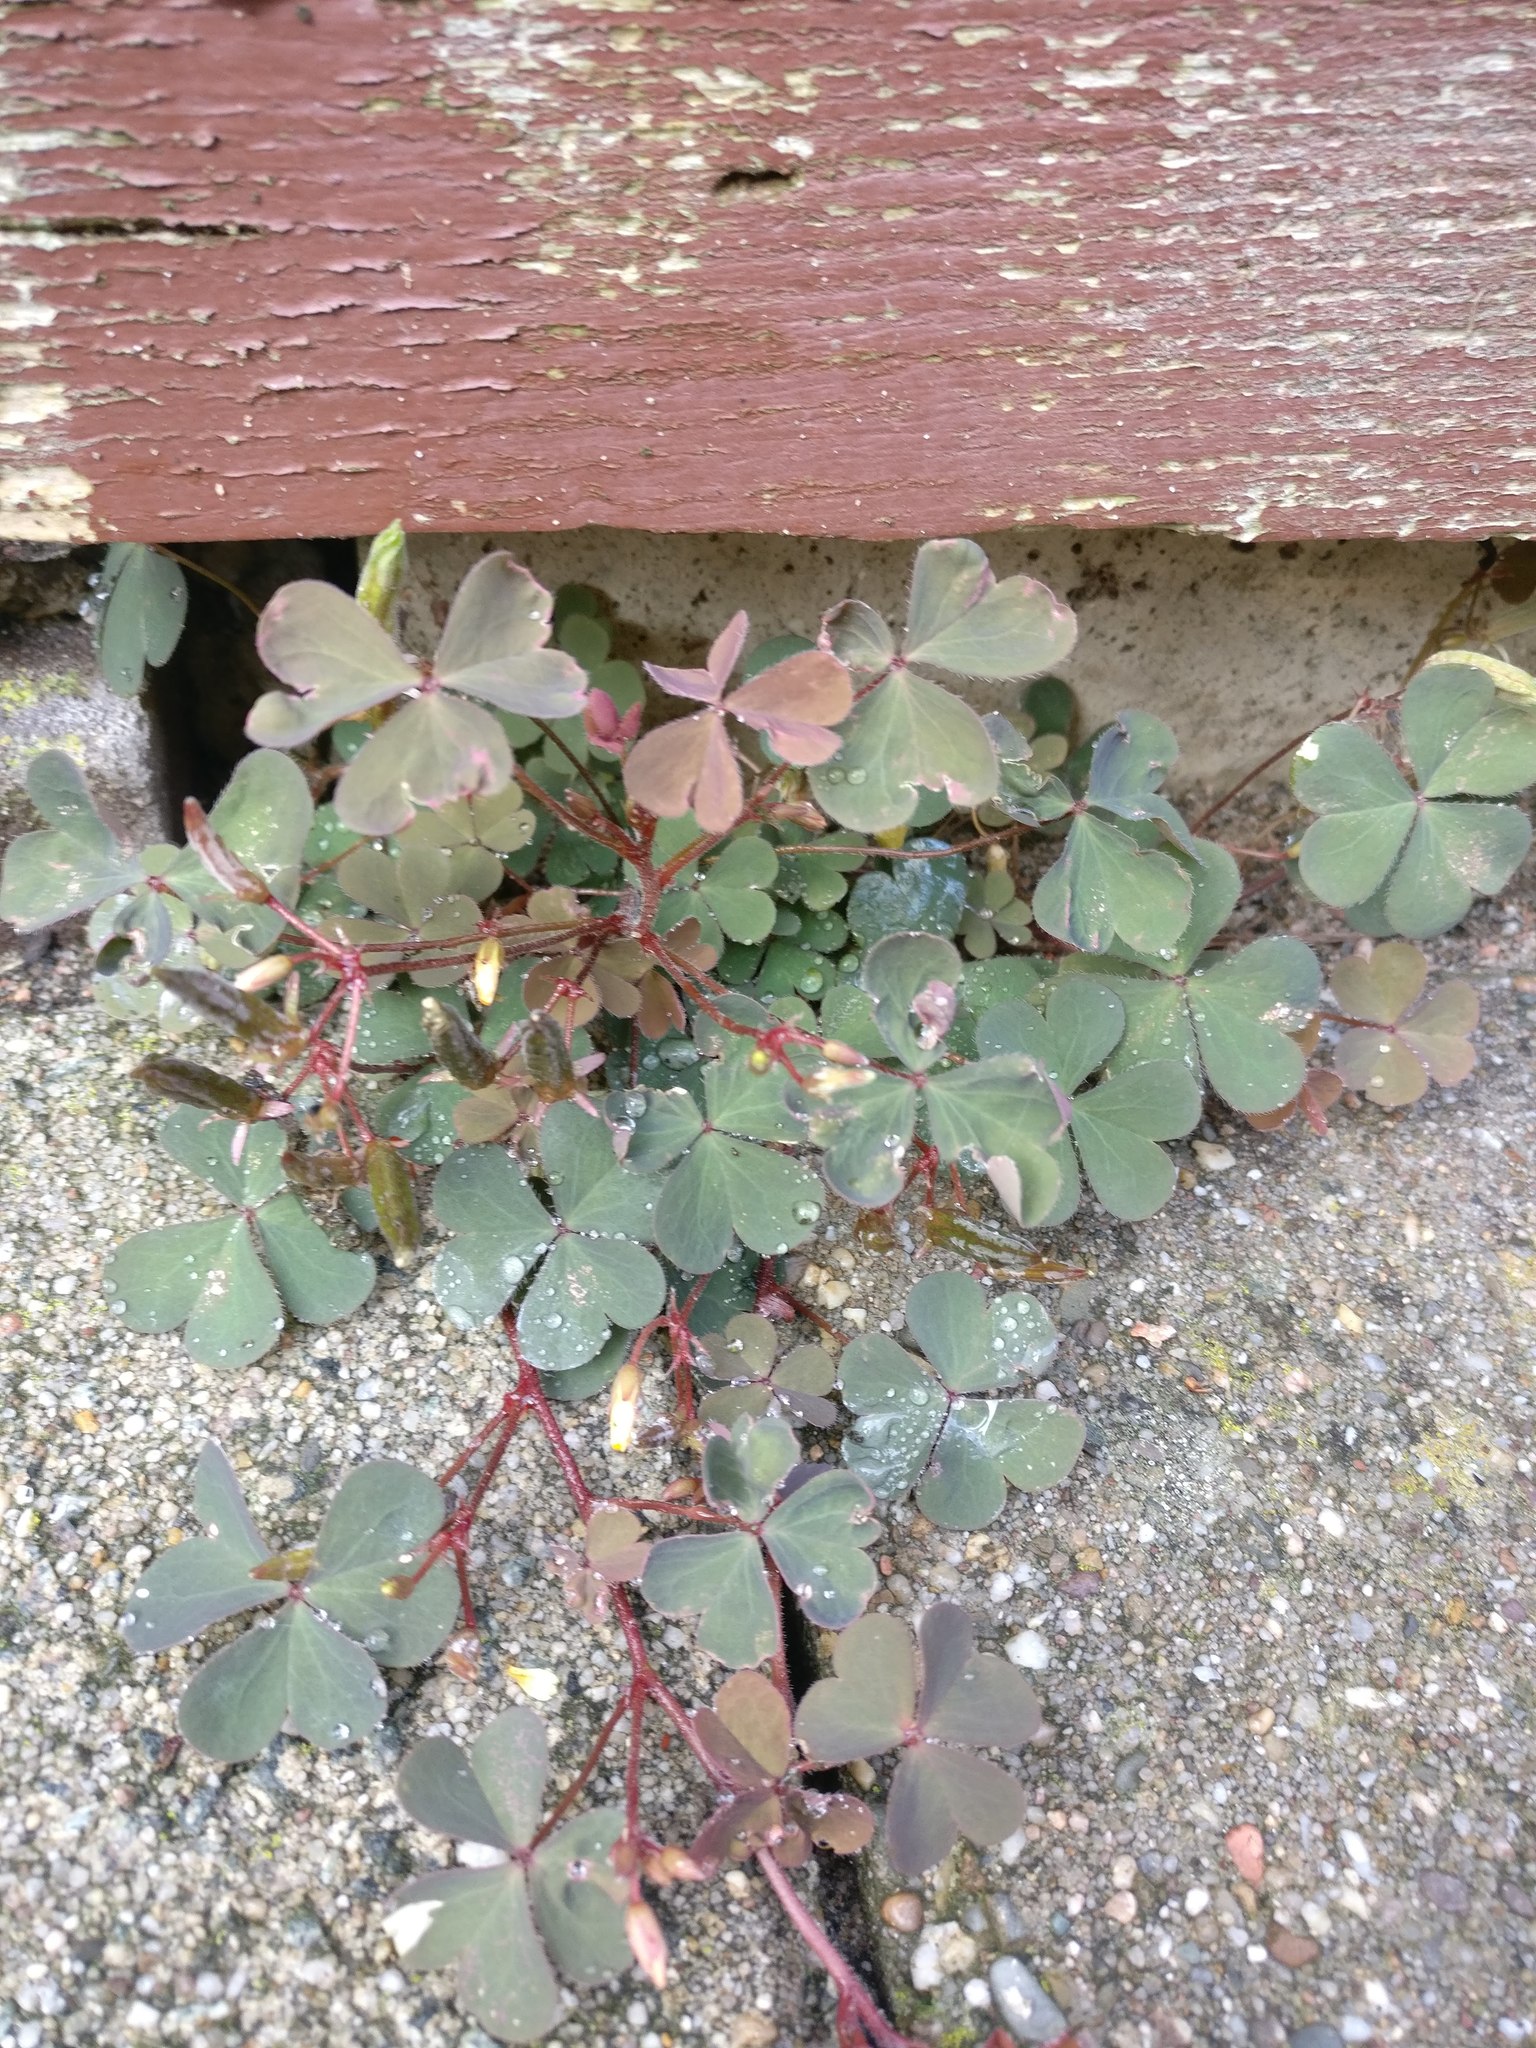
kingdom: Plantae
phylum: Tracheophyta
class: Magnoliopsida
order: Oxalidales
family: Oxalidaceae
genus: Oxalis
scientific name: Oxalis corniculata
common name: Procumbent yellow-sorrel
